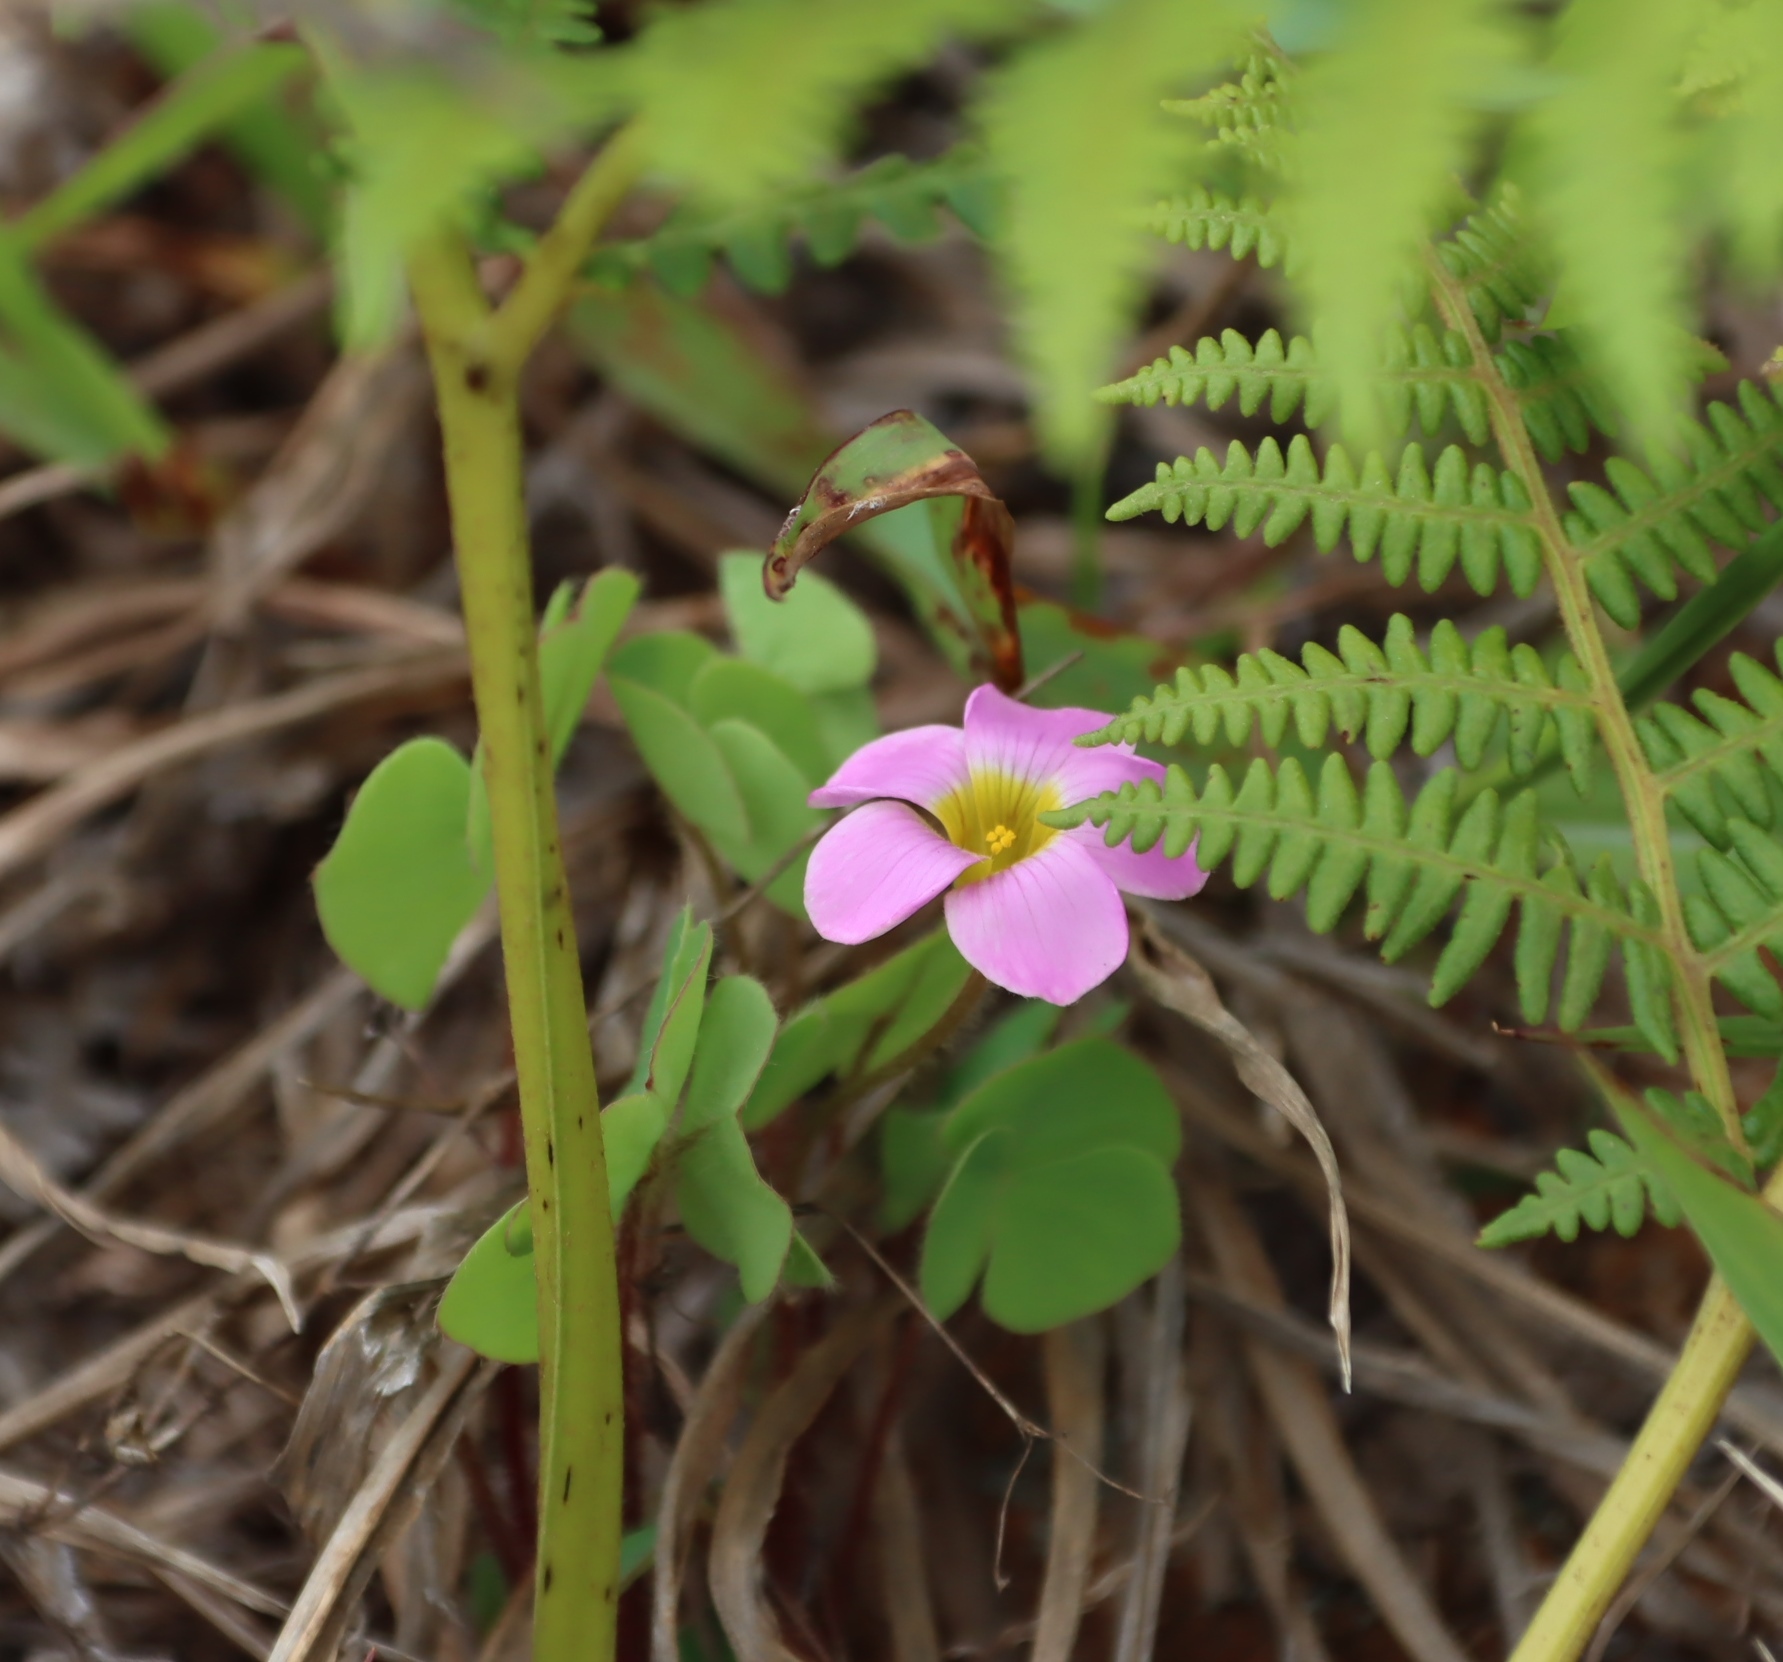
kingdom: Plantae
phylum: Tracheophyta
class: Magnoliopsida
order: Oxalidales
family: Oxalidaceae
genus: Oxalis
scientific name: Oxalis obliquifolia
